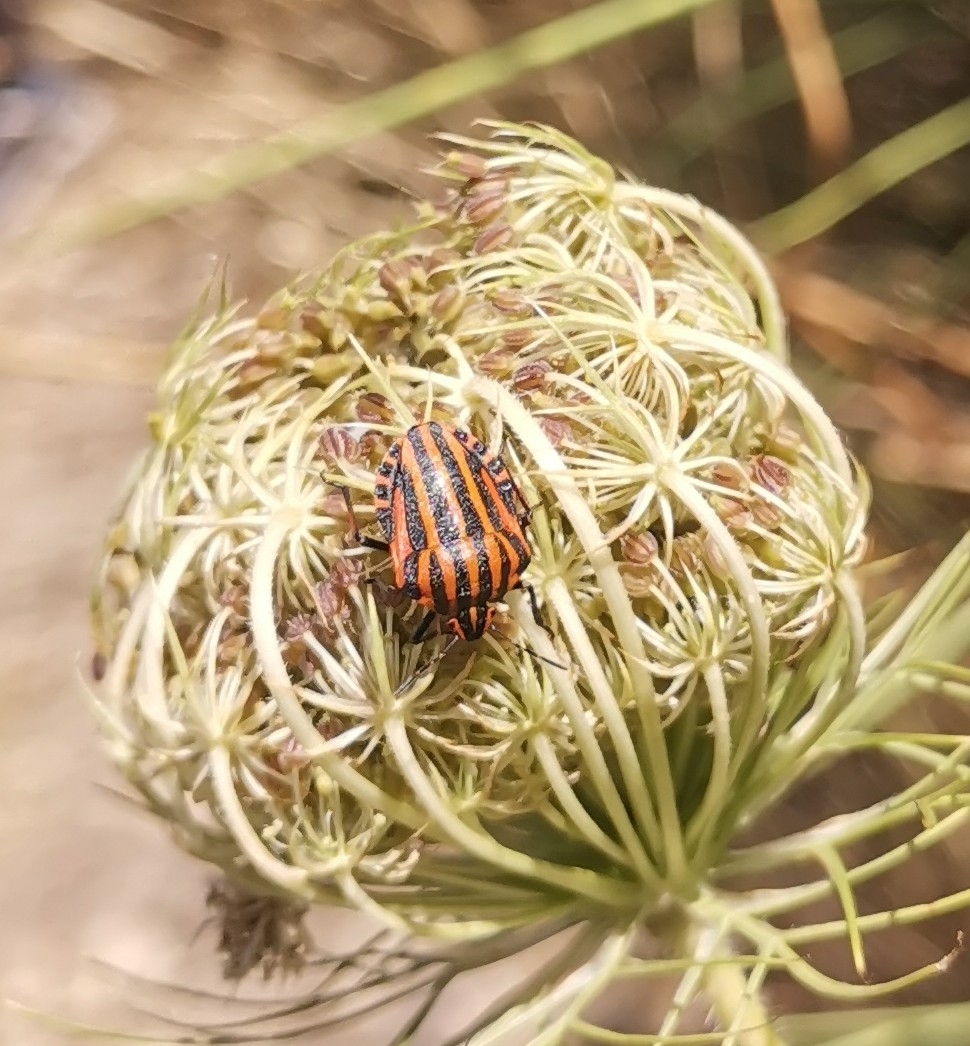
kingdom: Animalia
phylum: Arthropoda
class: Insecta
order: Hemiptera
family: Pentatomidae
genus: Graphosoma
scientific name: Graphosoma italicum
